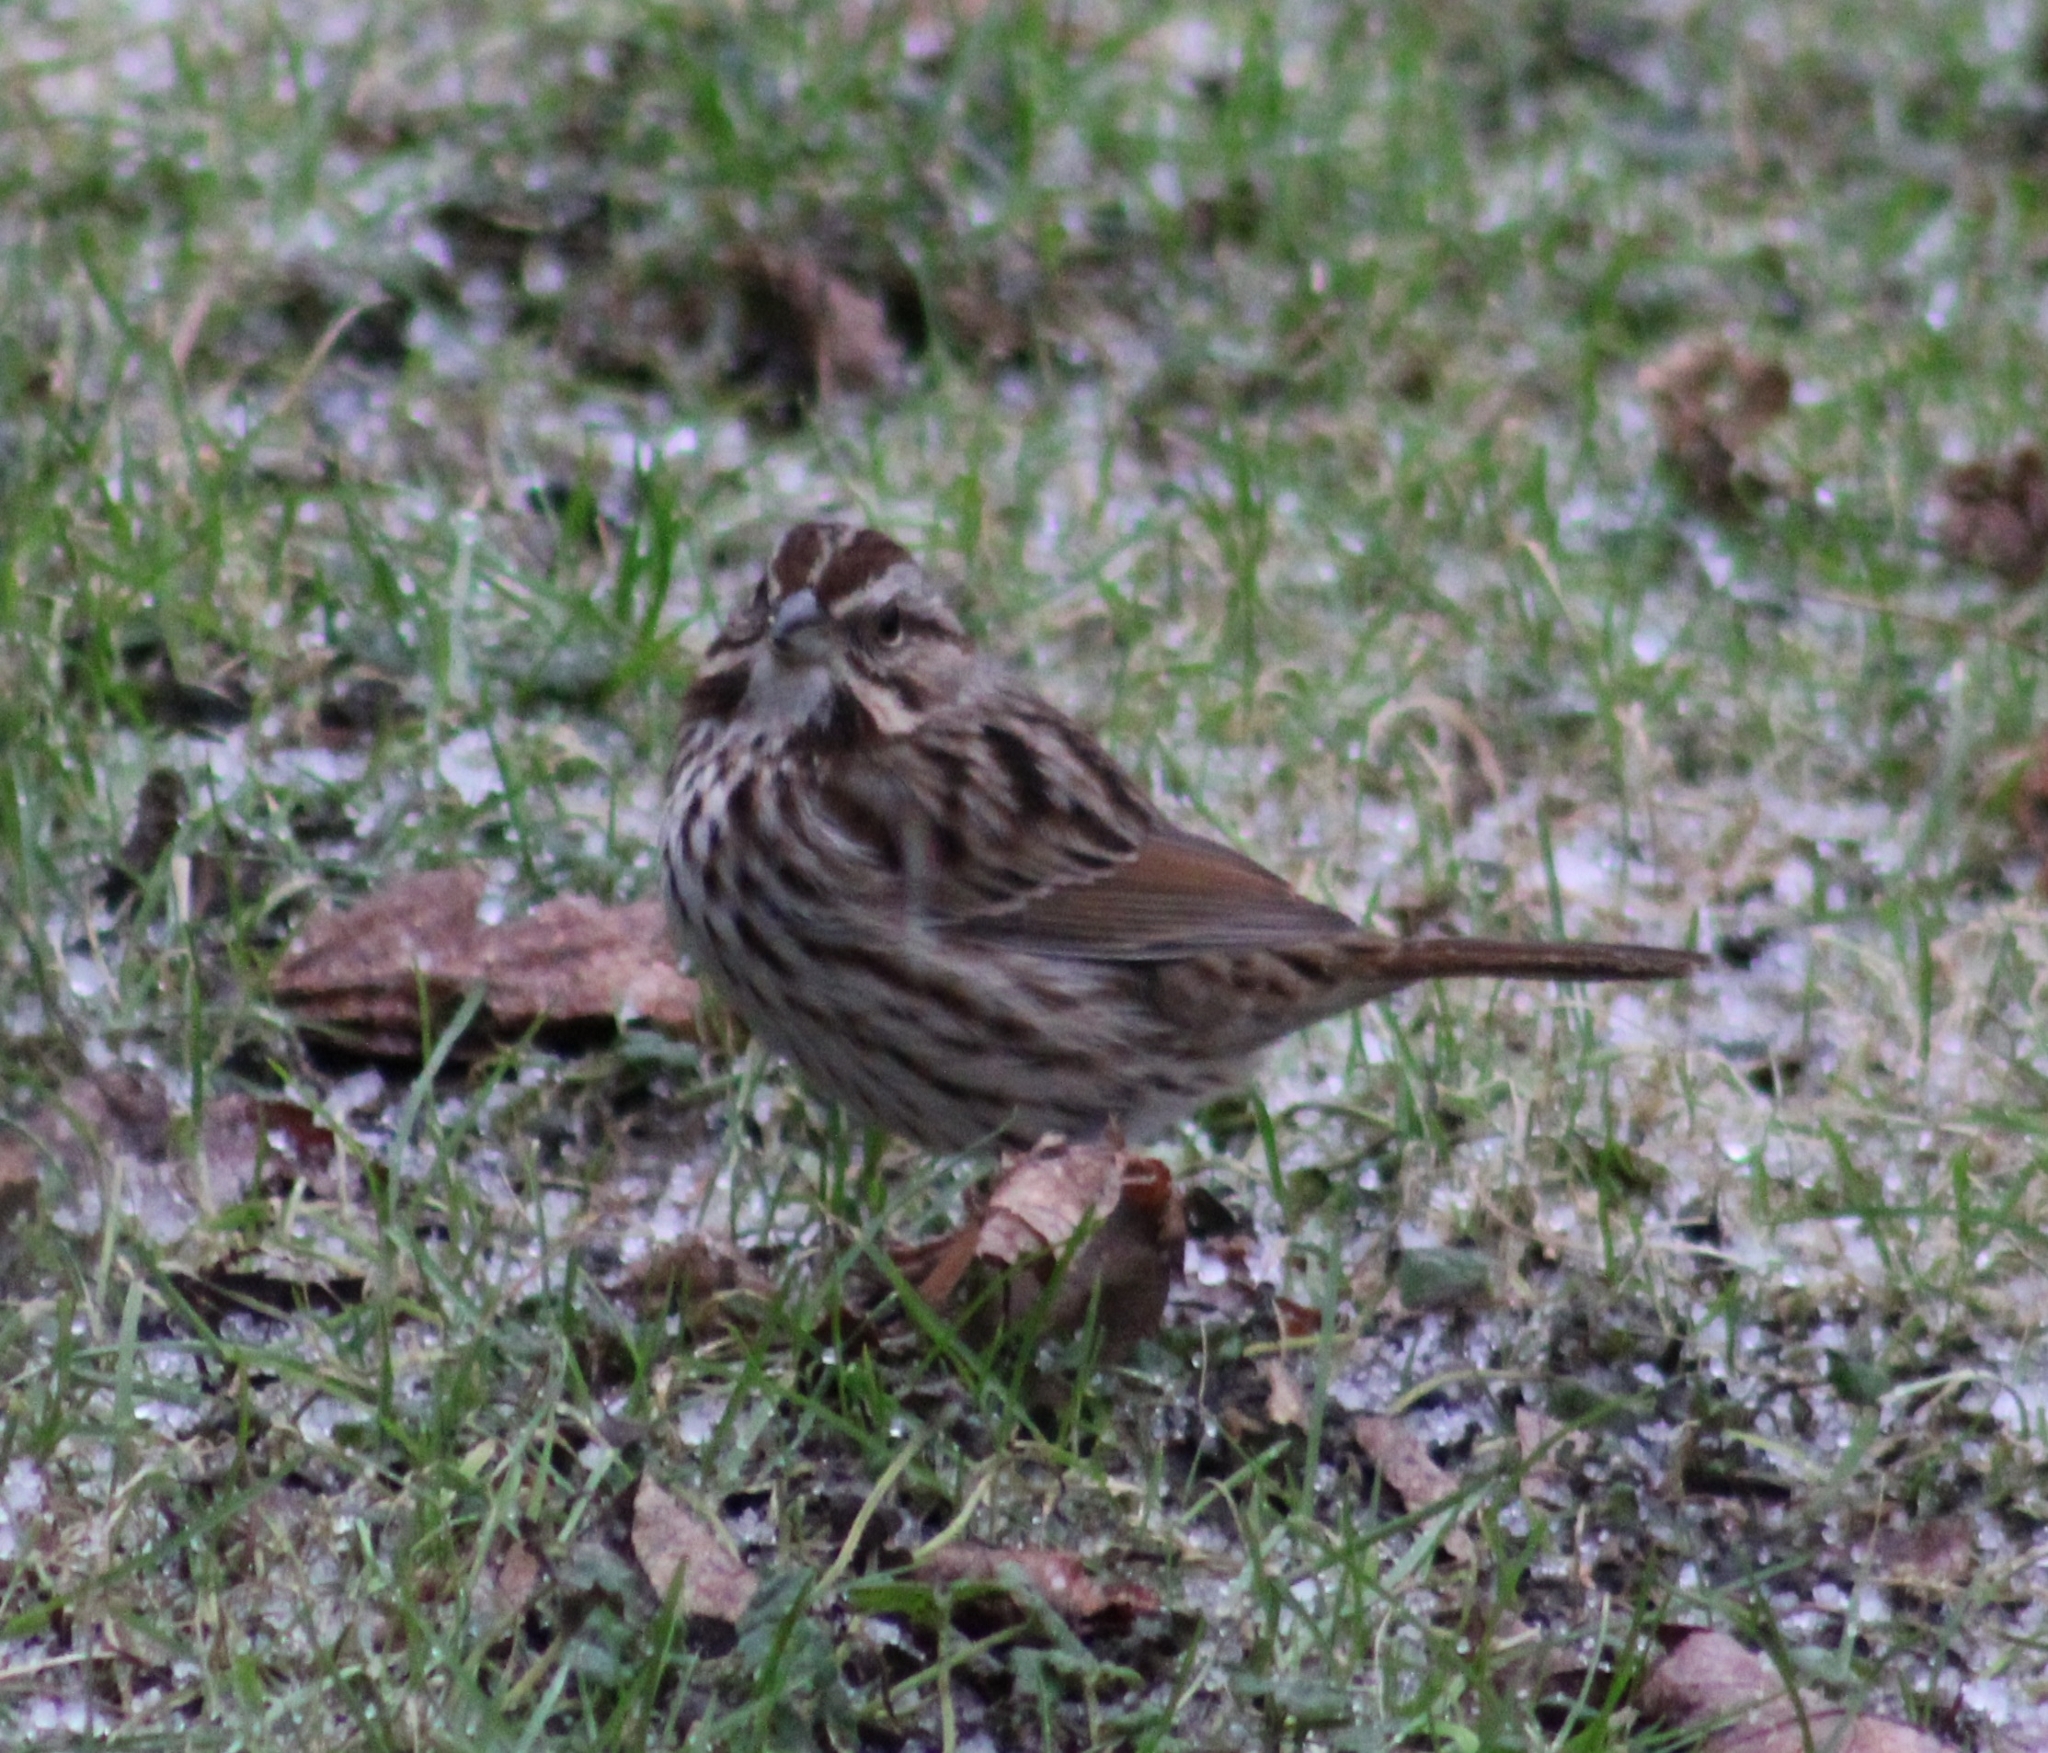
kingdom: Animalia
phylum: Chordata
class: Aves
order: Passeriformes
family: Passerellidae
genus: Melospiza
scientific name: Melospiza melodia
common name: Song sparrow
